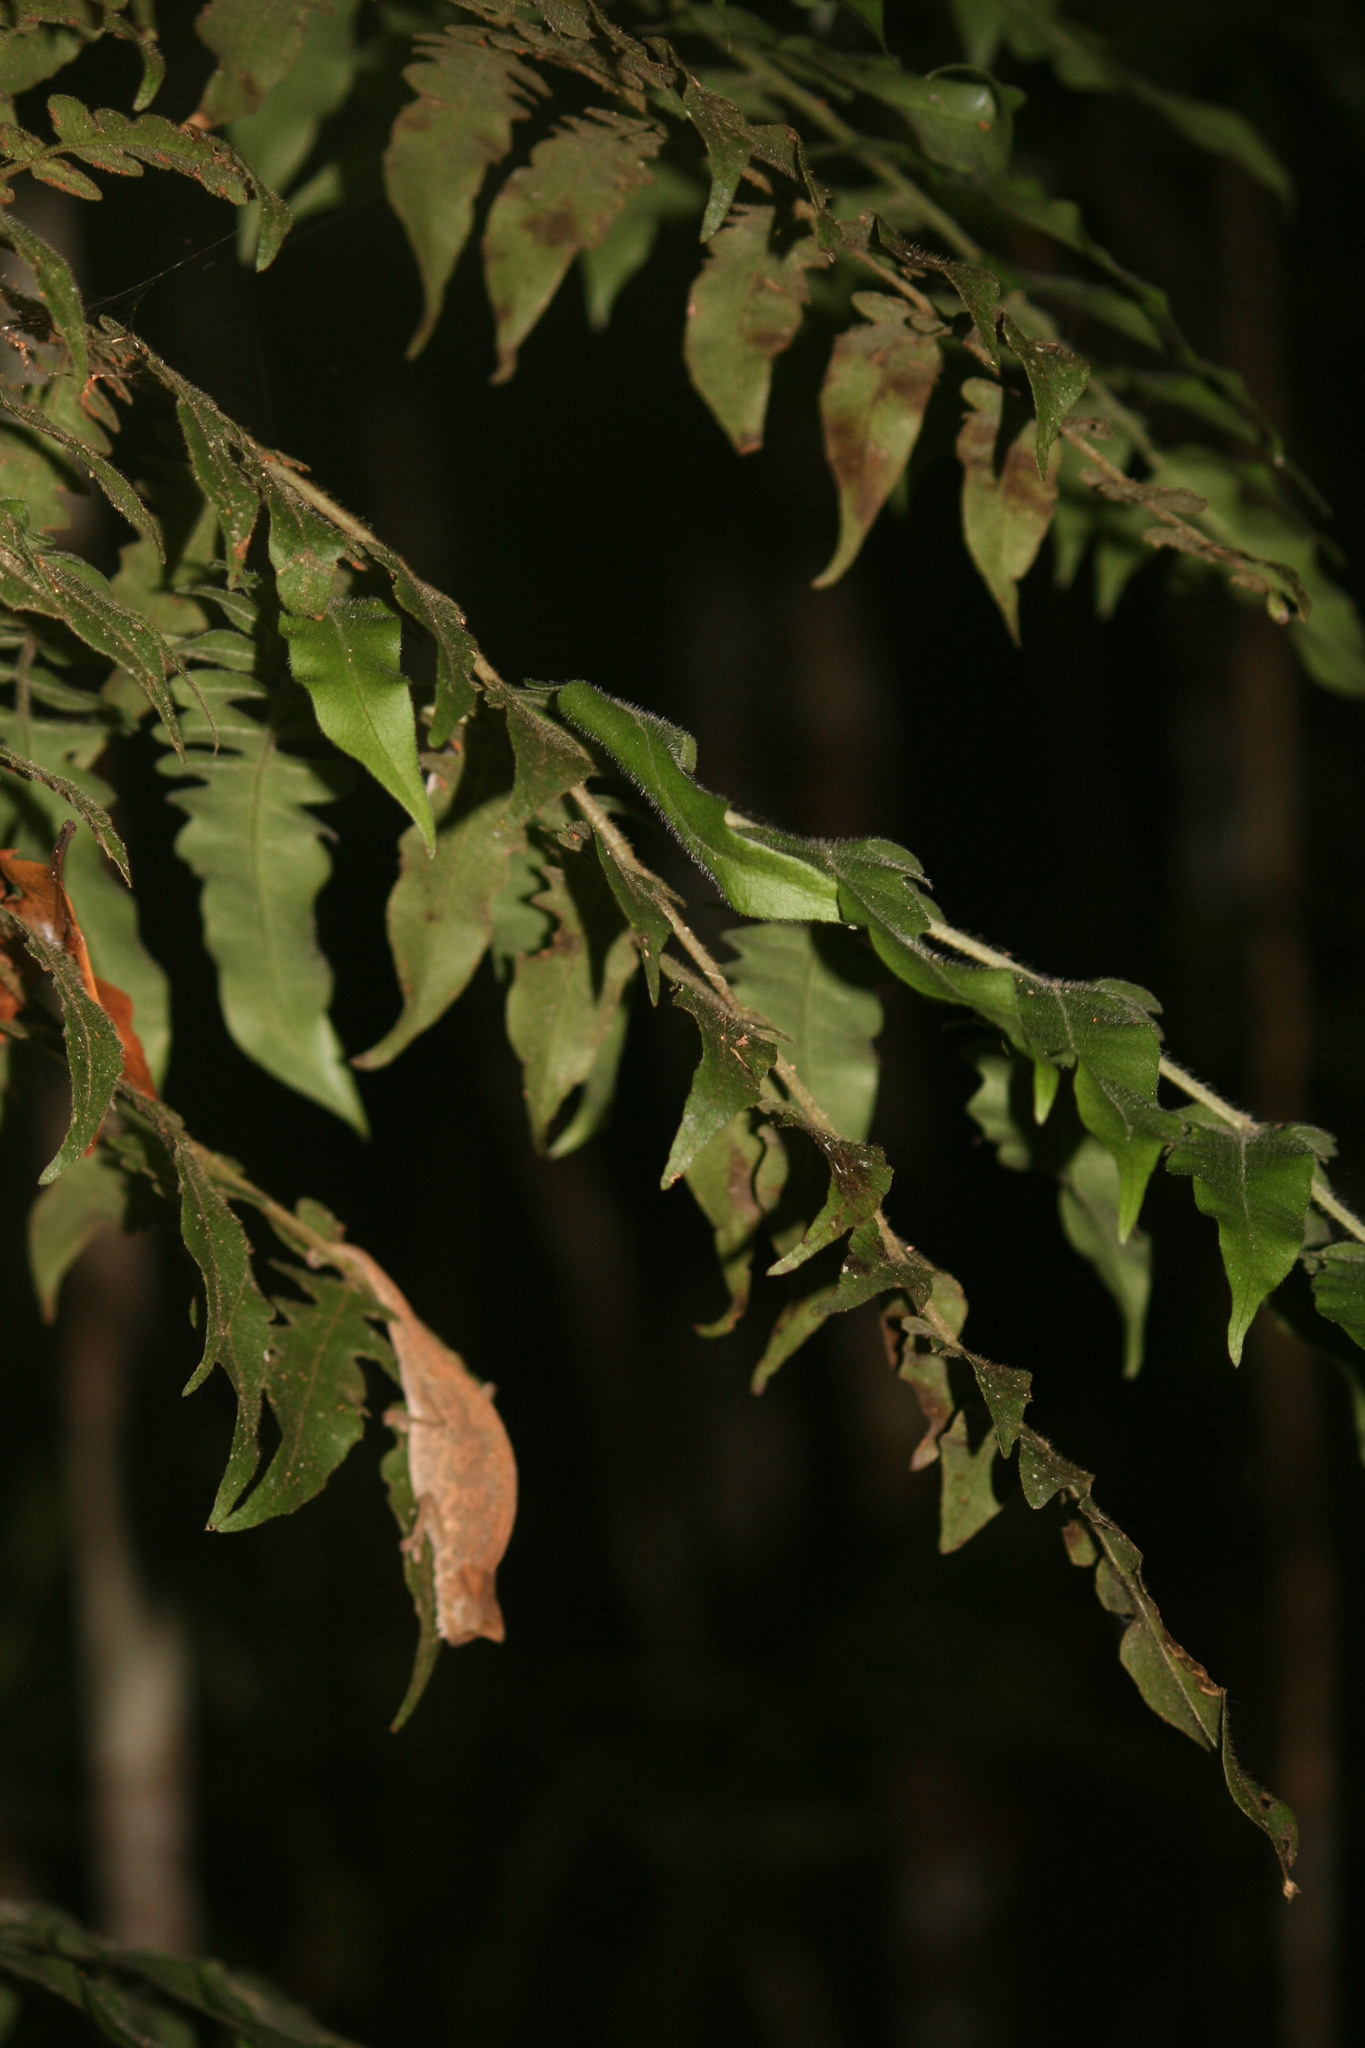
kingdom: Animalia
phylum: Chordata
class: Squamata
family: Chamaeleonidae
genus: Brookesia
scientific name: Brookesia
